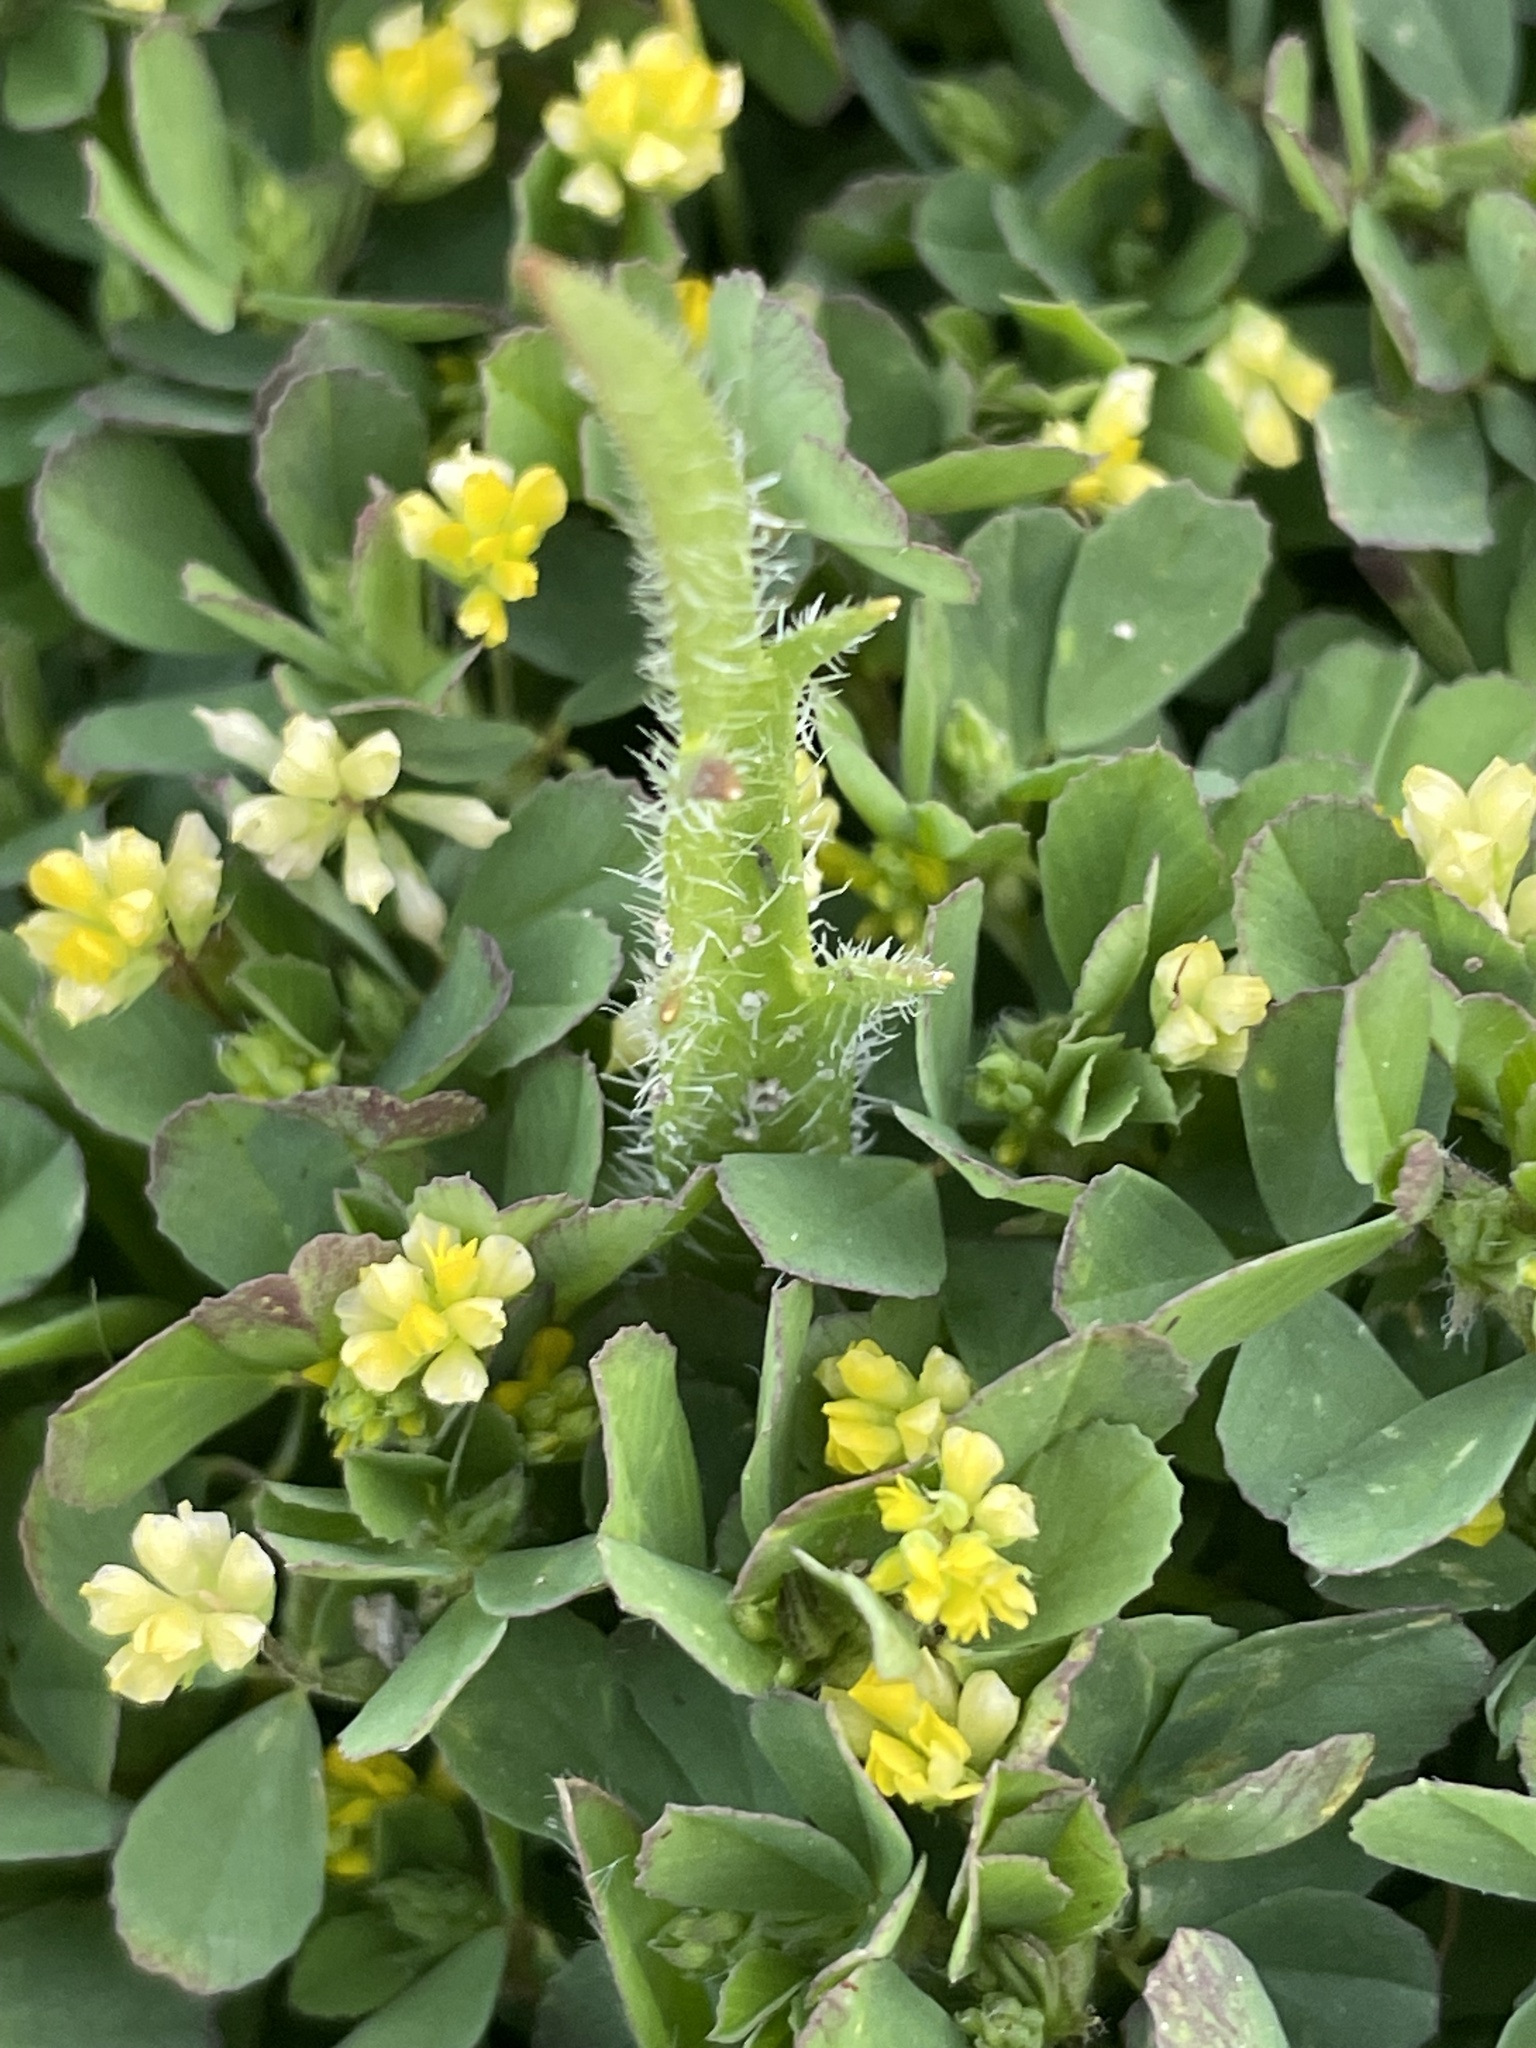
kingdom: Plantae
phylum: Tracheophyta
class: Magnoliopsida
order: Fabales
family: Fabaceae
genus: Trifolium
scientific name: Trifolium dubium
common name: Suckling clover
